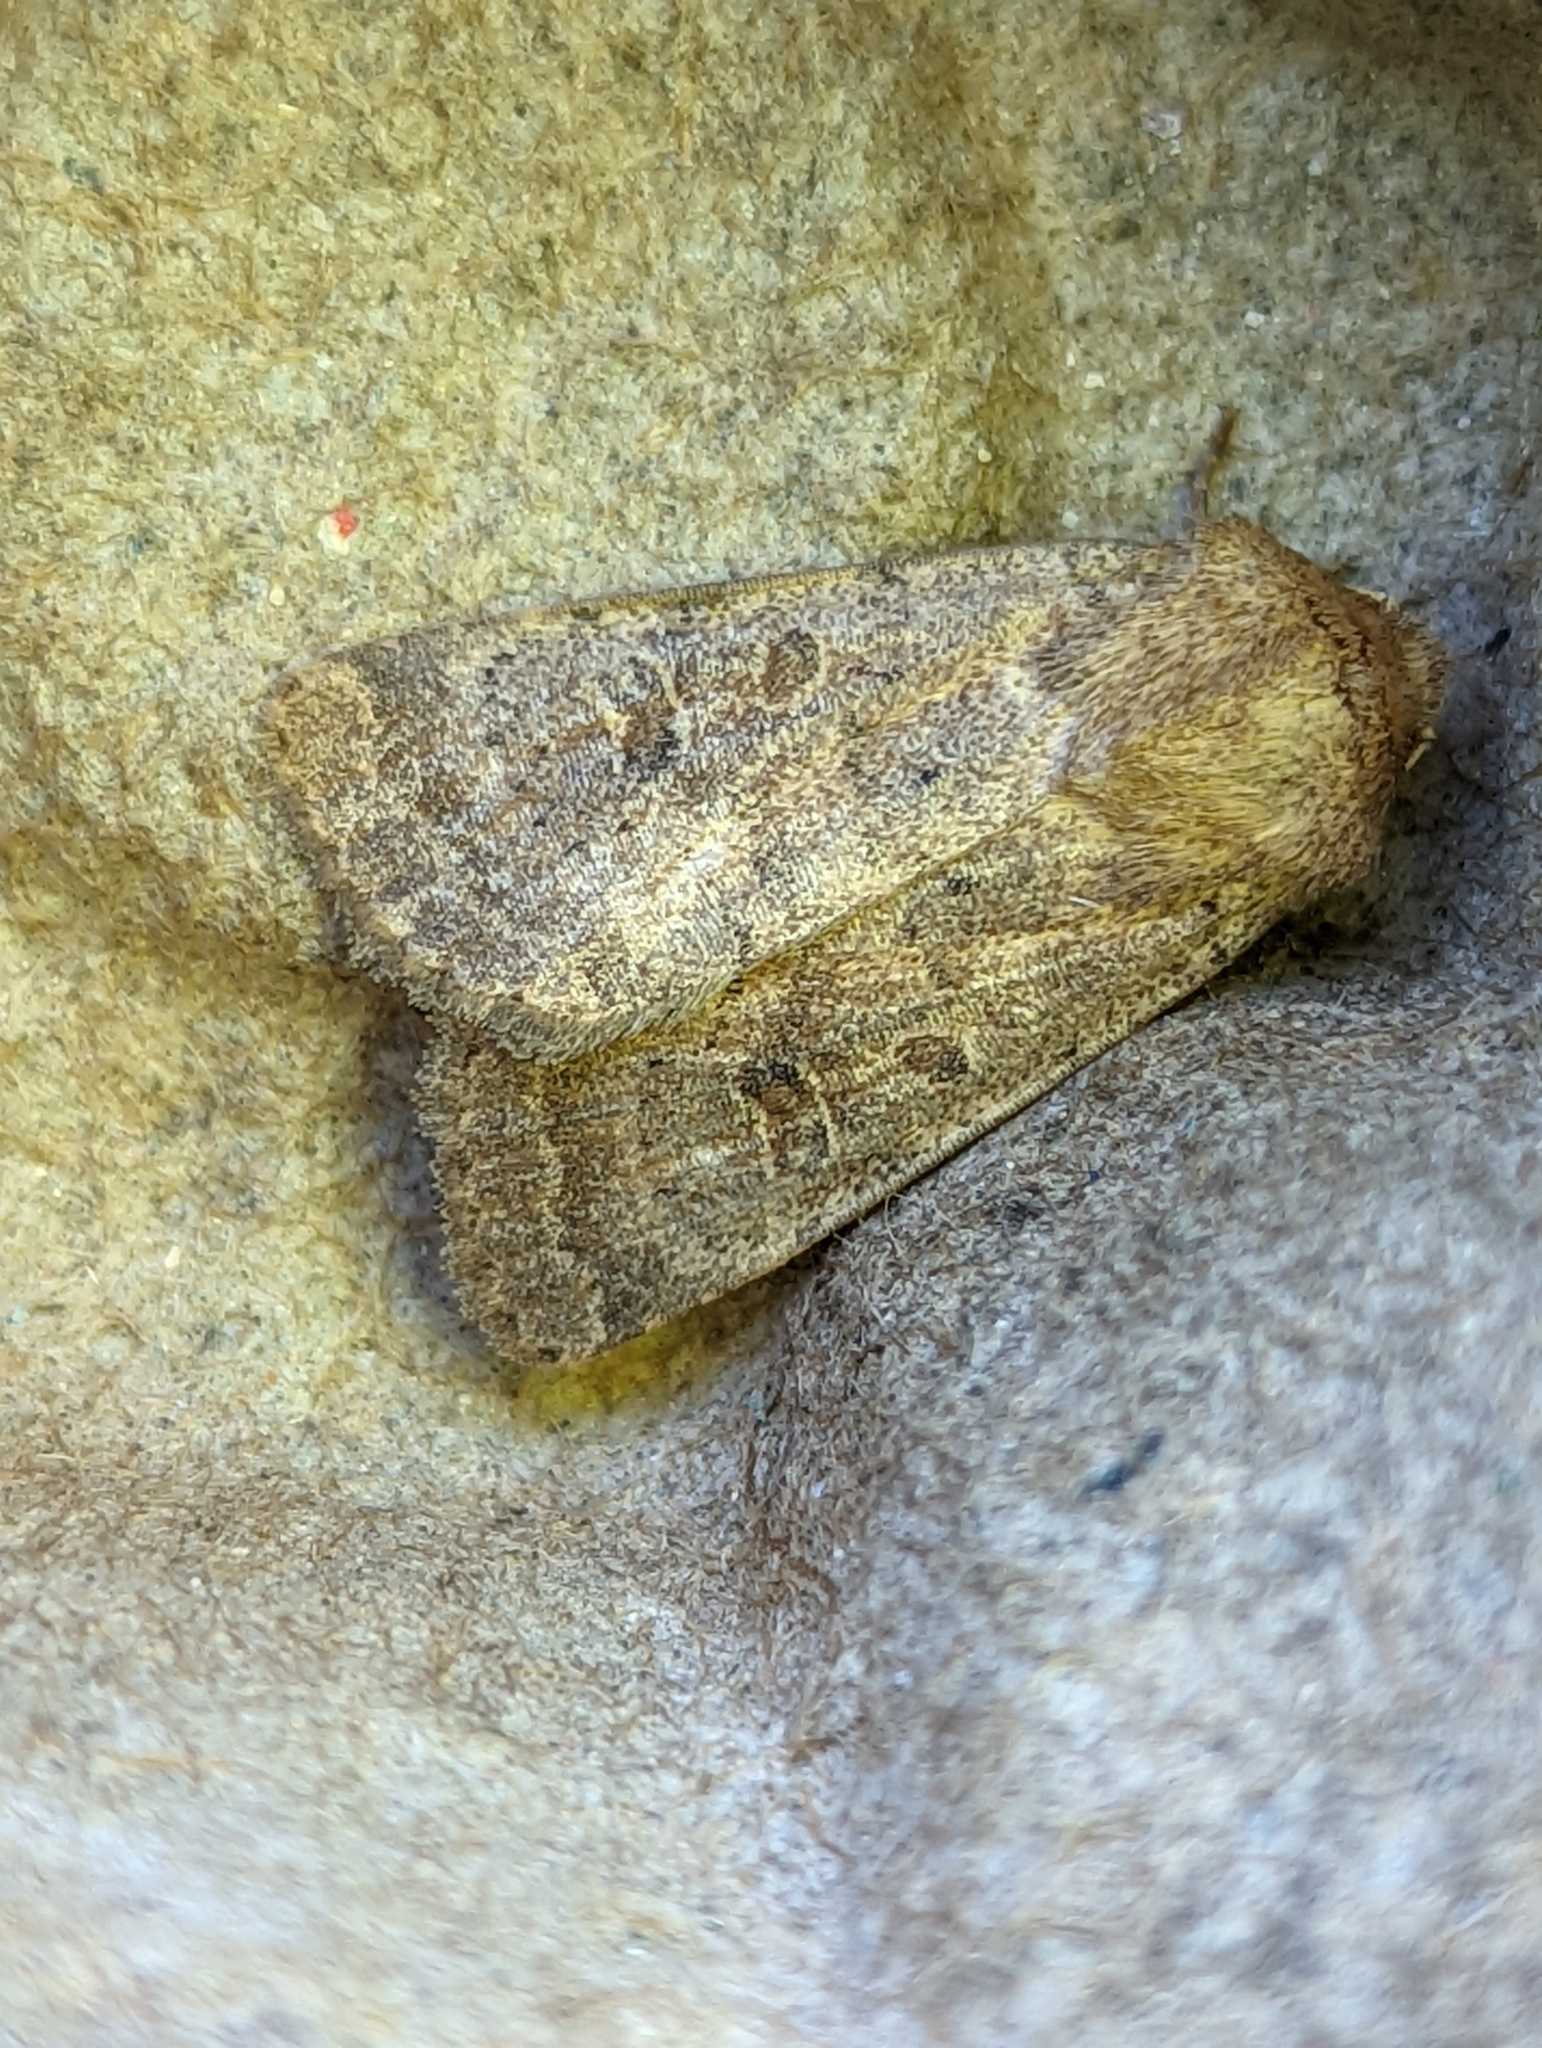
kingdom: Animalia
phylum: Arthropoda
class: Insecta
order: Lepidoptera
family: Noctuidae
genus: Hoplodrina
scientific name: Hoplodrina ambigua
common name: Vine's rustic
